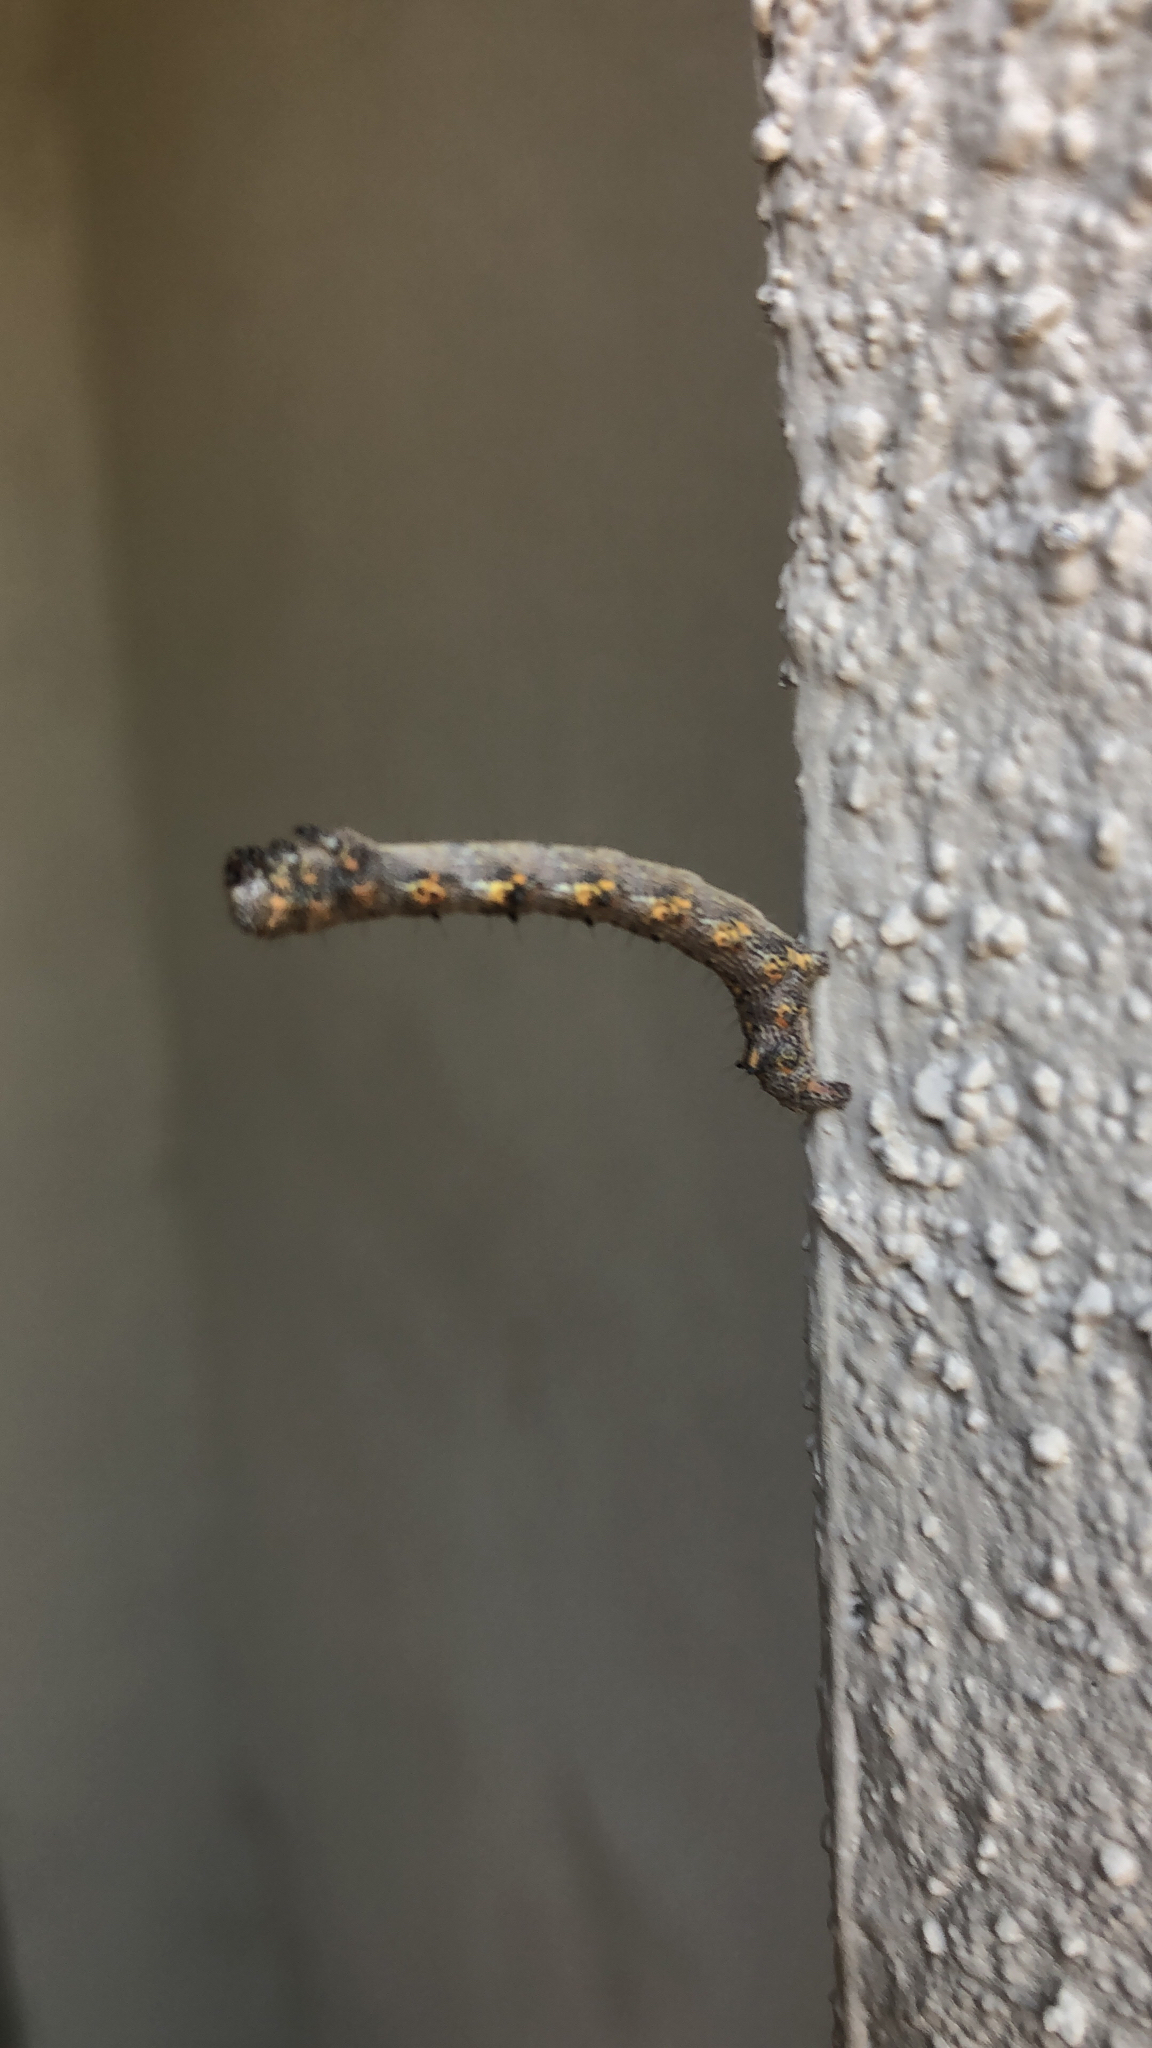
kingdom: Animalia
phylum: Arthropoda
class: Insecta
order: Lepidoptera
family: Geometridae
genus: Phigalia
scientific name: Phigalia titea
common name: Spiny looper
